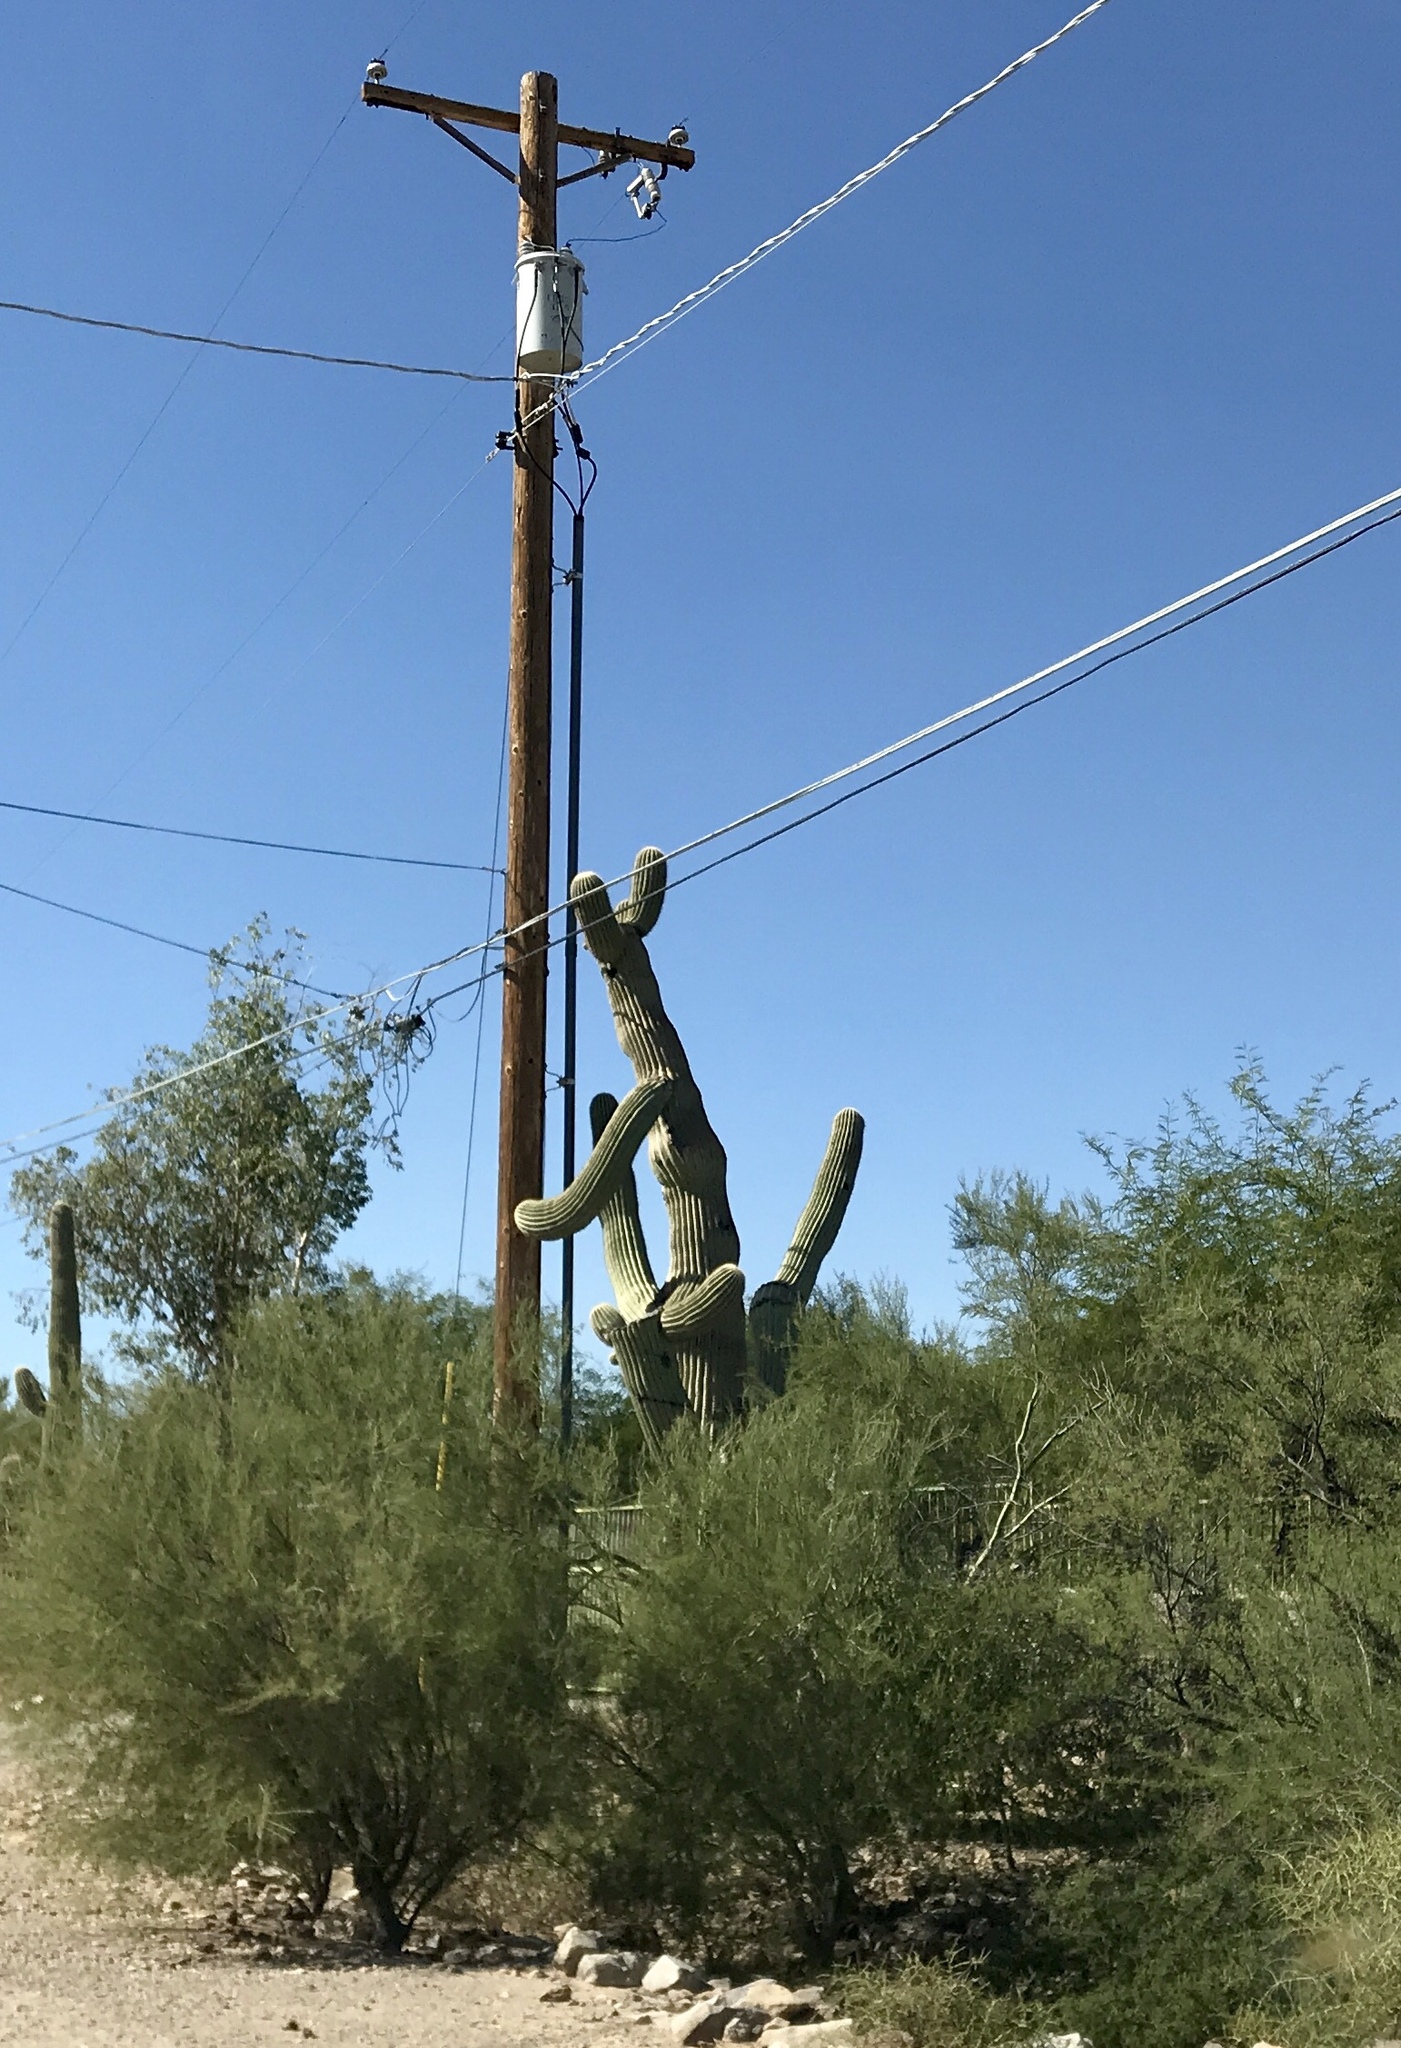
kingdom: Plantae
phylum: Tracheophyta
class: Magnoliopsida
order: Caryophyllales
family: Cactaceae
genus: Carnegiea
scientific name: Carnegiea gigantea
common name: Saguaro
